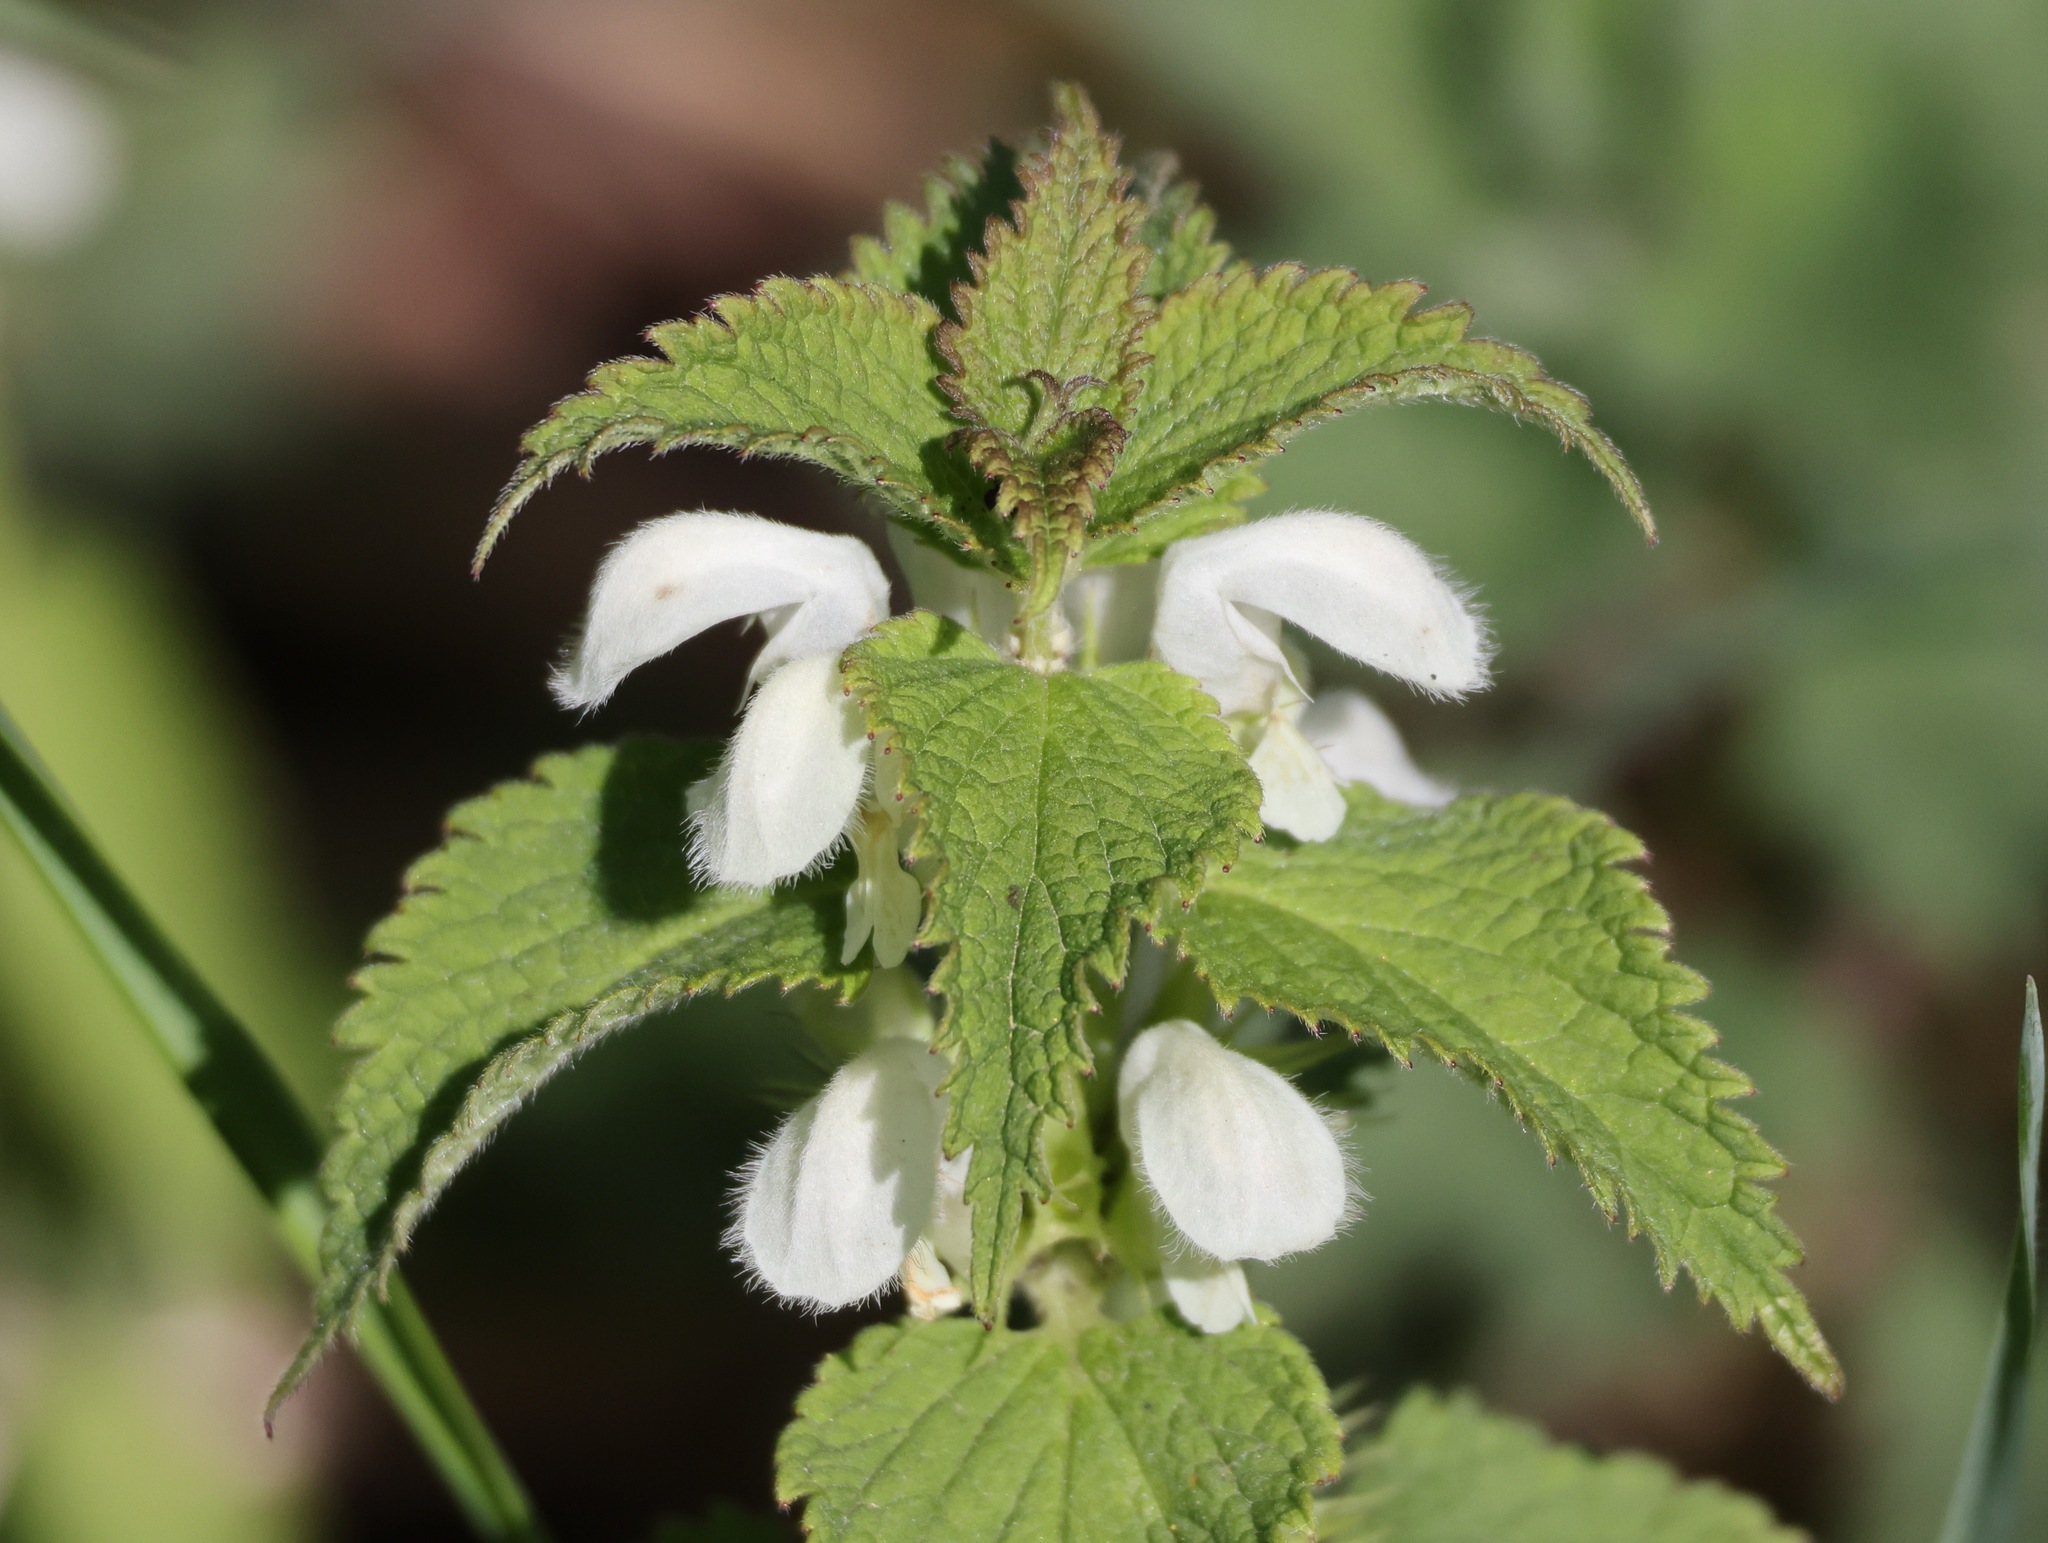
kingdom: Plantae
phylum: Tracheophyta
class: Magnoliopsida
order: Lamiales
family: Lamiaceae
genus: Lamium
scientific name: Lamium album
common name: White dead-nettle
